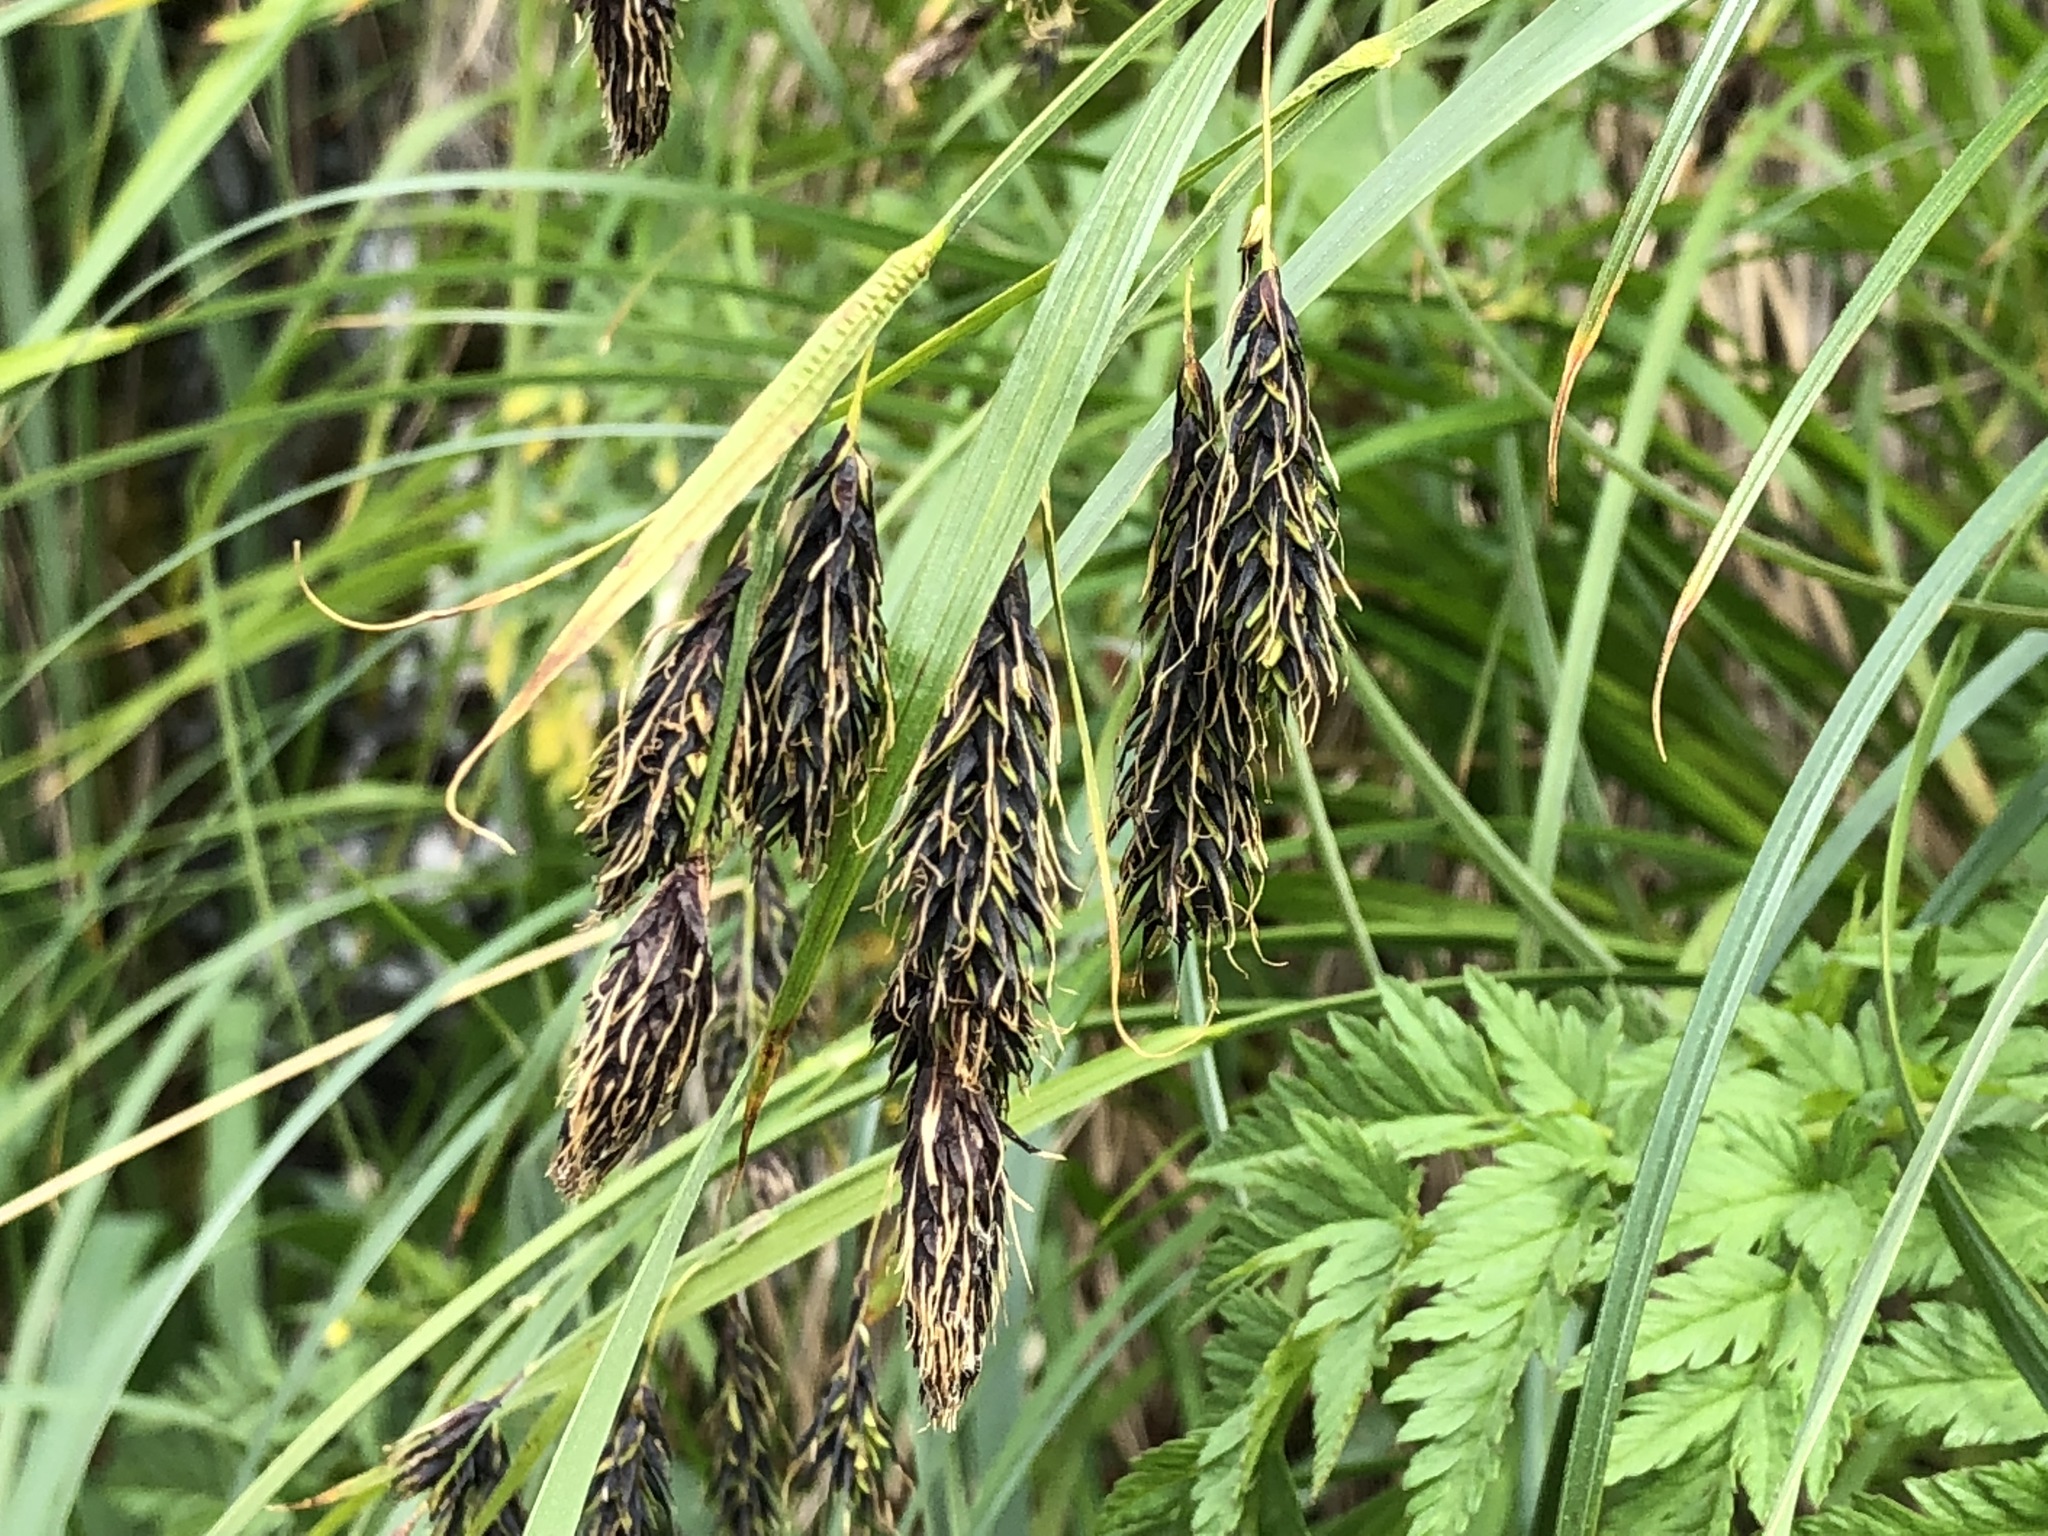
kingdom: Plantae
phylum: Tracheophyta
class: Liliopsida
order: Poales
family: Cyperaceae
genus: Carex
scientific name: Carex macrochaeta
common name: Alaska large awn sedge
